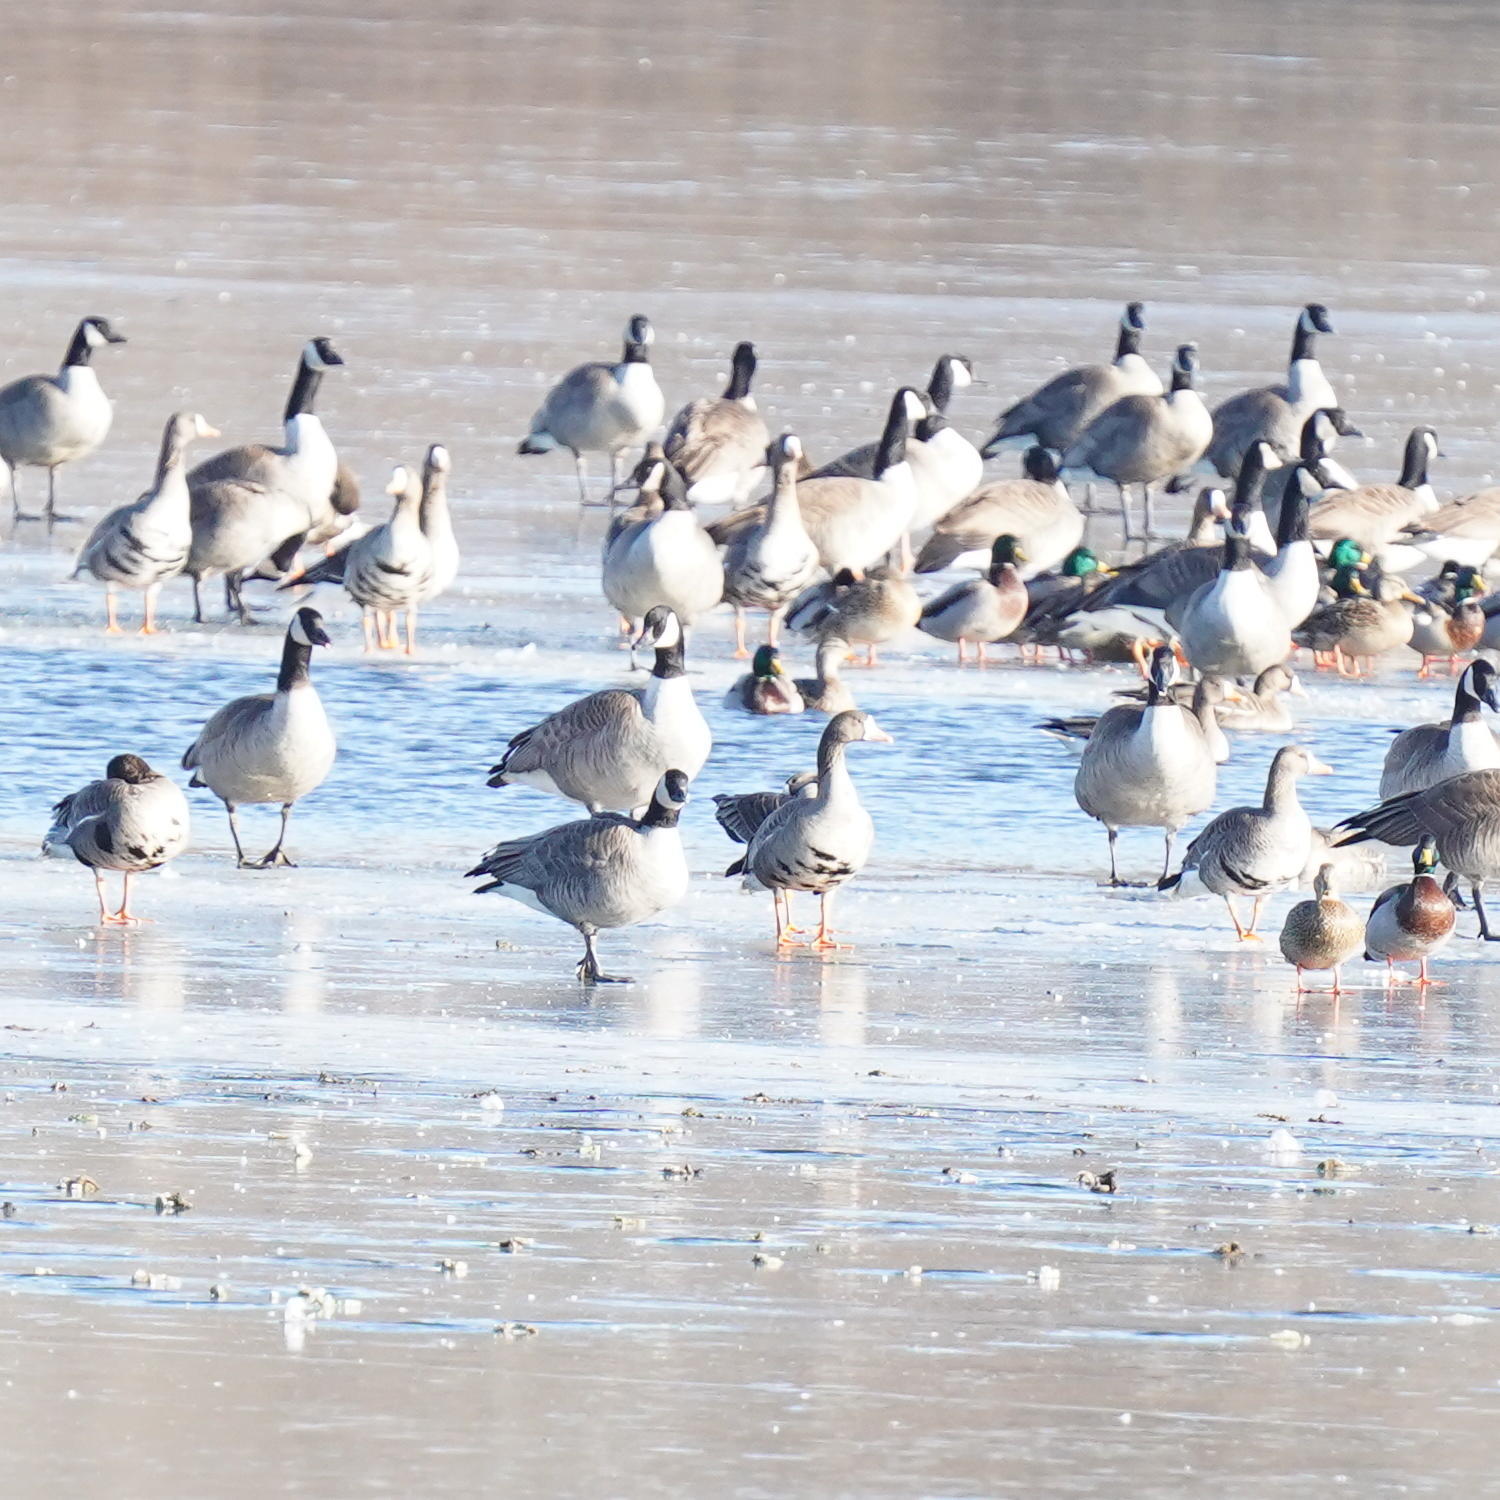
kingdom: Animalia
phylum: Chordata
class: Aves
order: Anseriformes
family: Anatidae
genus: Anas
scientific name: Anas platyrhynchos
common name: Mallard
